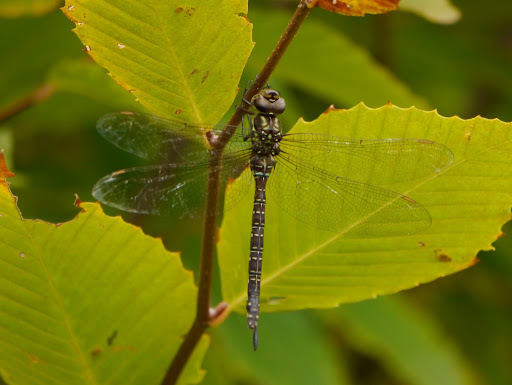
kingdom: Animalia
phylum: Arthropoda
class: Insecta
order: Odonata
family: Aeshnidae
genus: Aeshna
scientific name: Aeshna umbrosa
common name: Shadow darner
